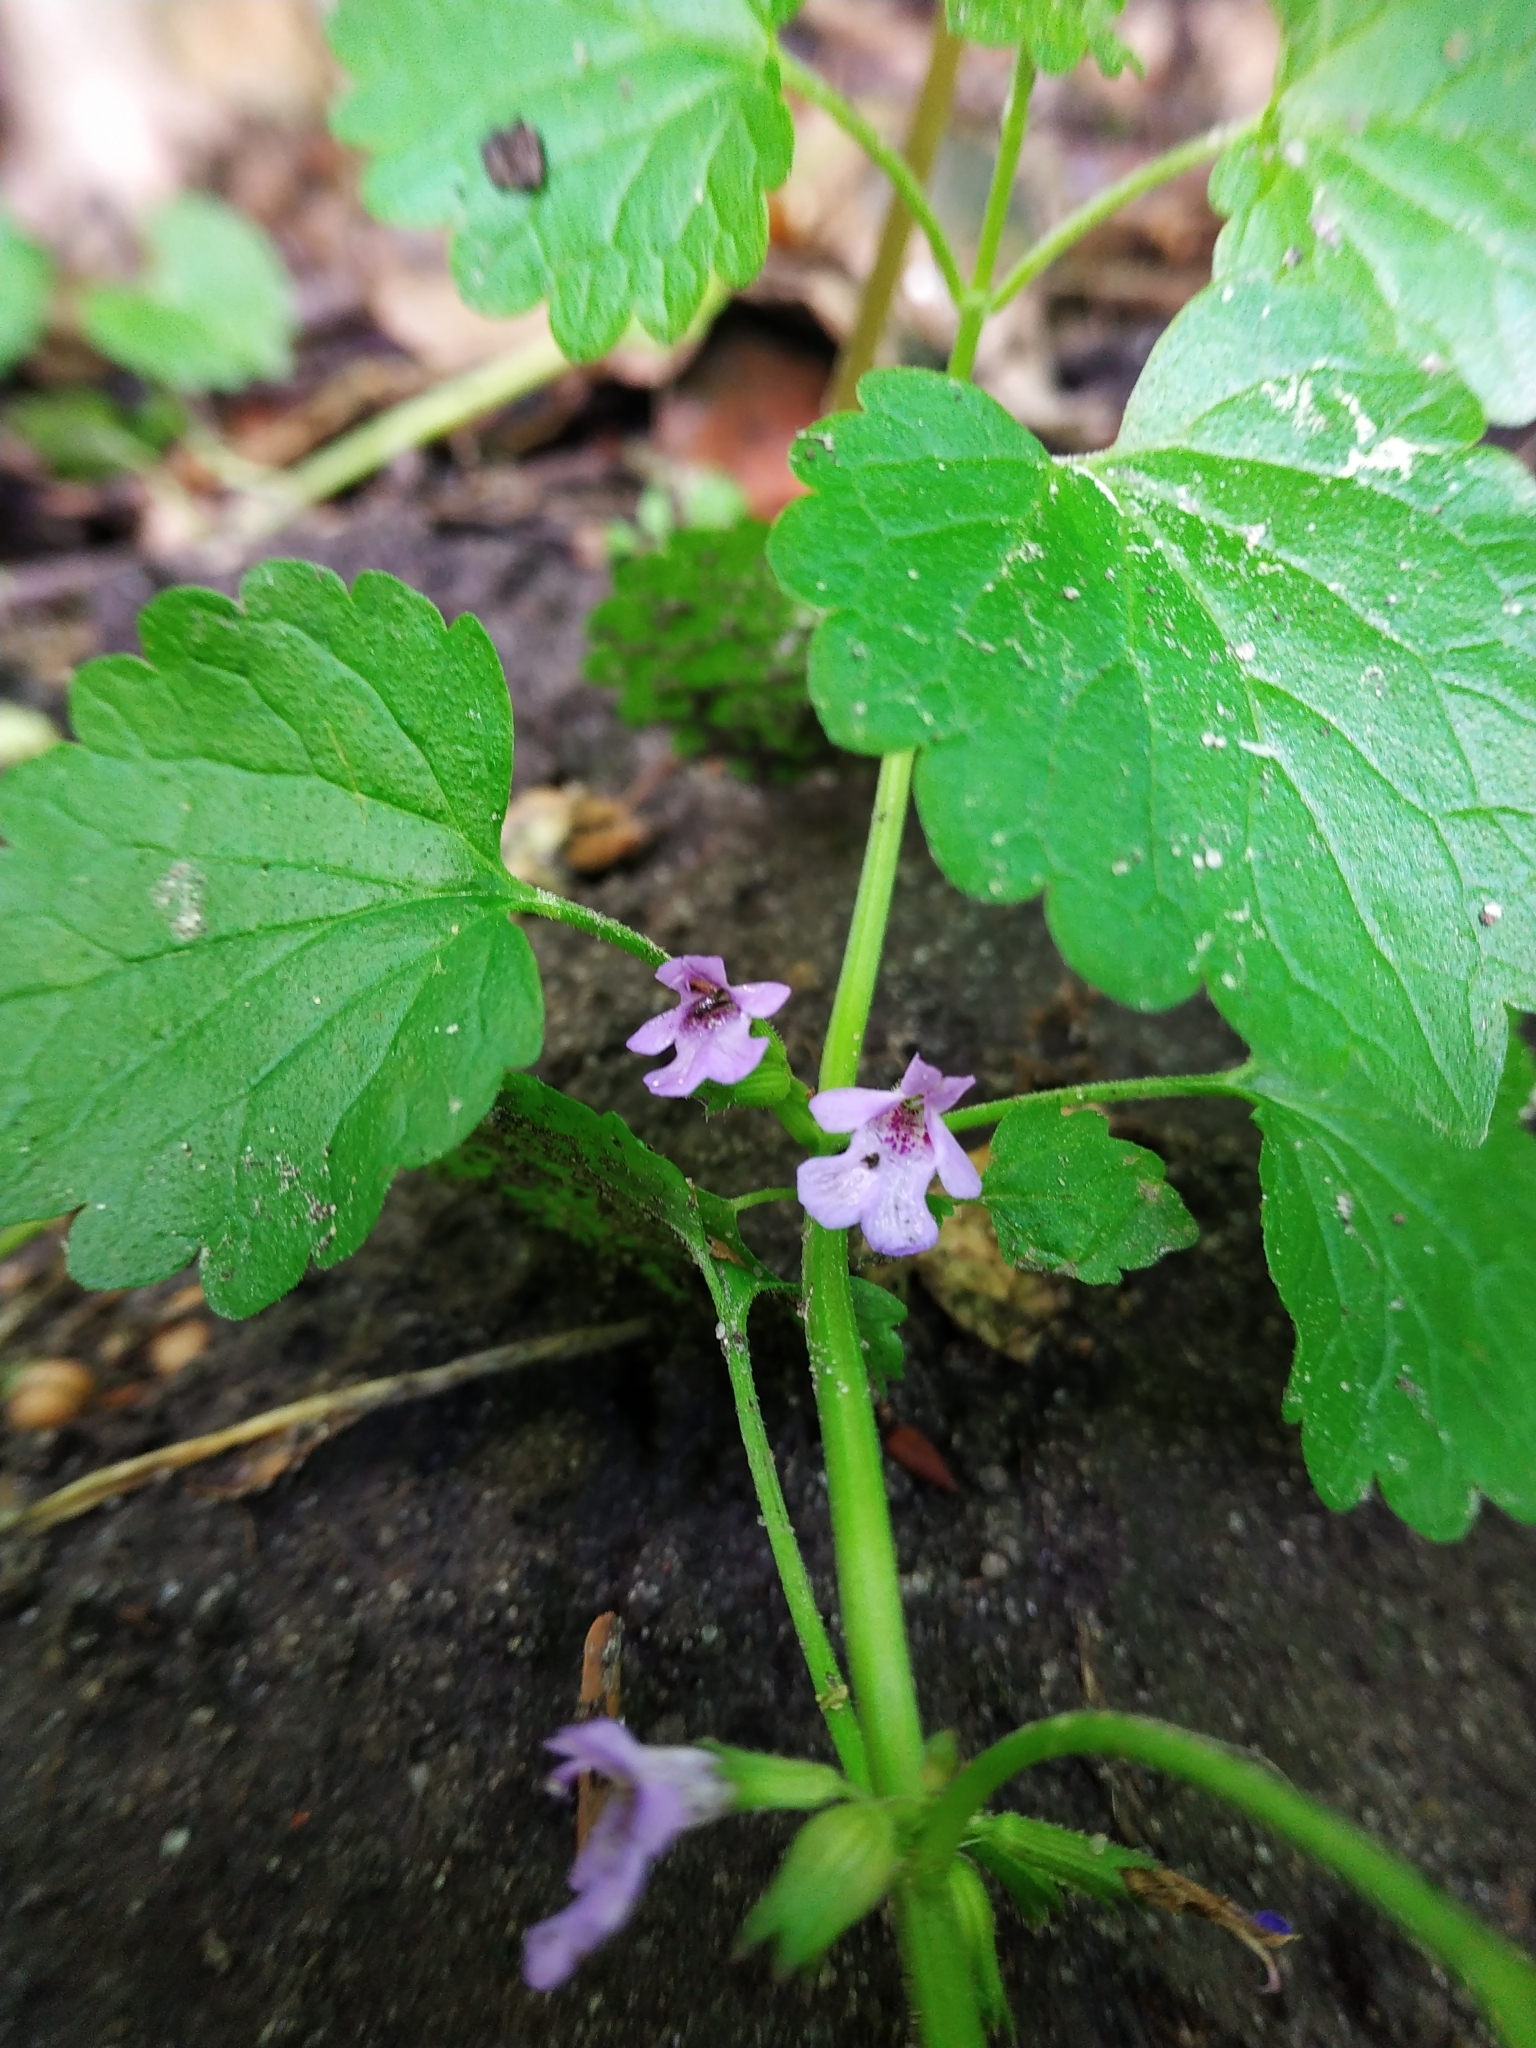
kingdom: Plantae
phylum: Tracheophyta
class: Magnoliopsida
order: Lamiales
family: Lamiaceae
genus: Glechoma
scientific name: Glechoma hederacea
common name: Ground ivy
